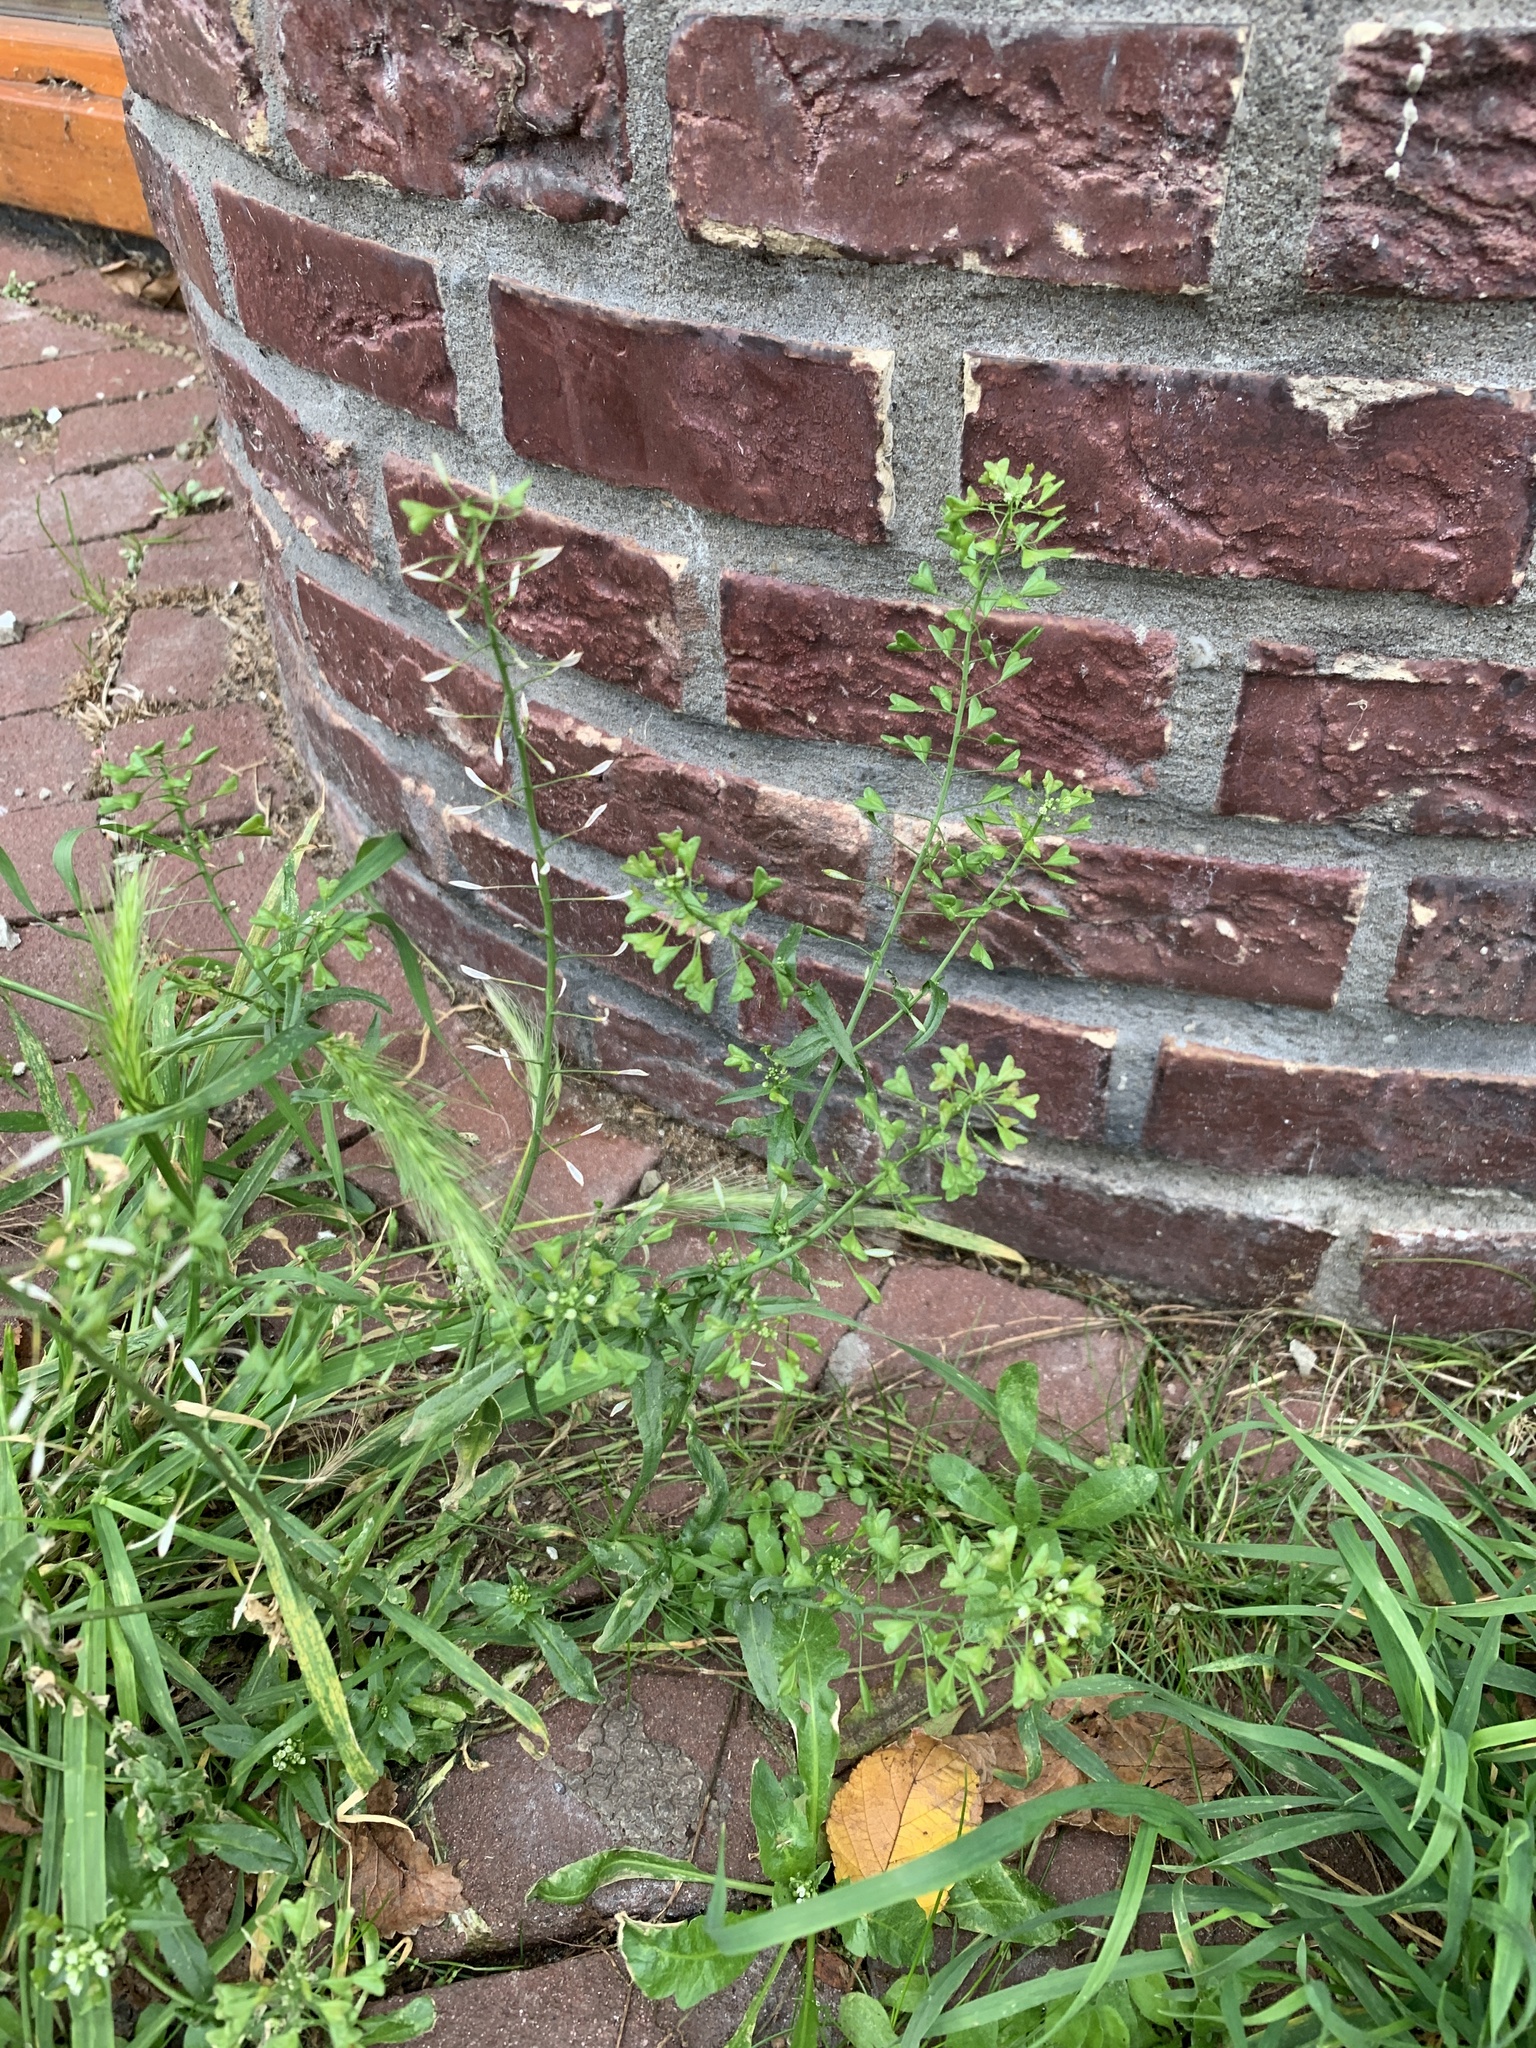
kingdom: Plantae
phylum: Tracheophyta
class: Magnoliopsida
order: Brassicales
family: Brassicaceae
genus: Capsella
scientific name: Capsella bursa-pastoris
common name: Shepherd's purse
